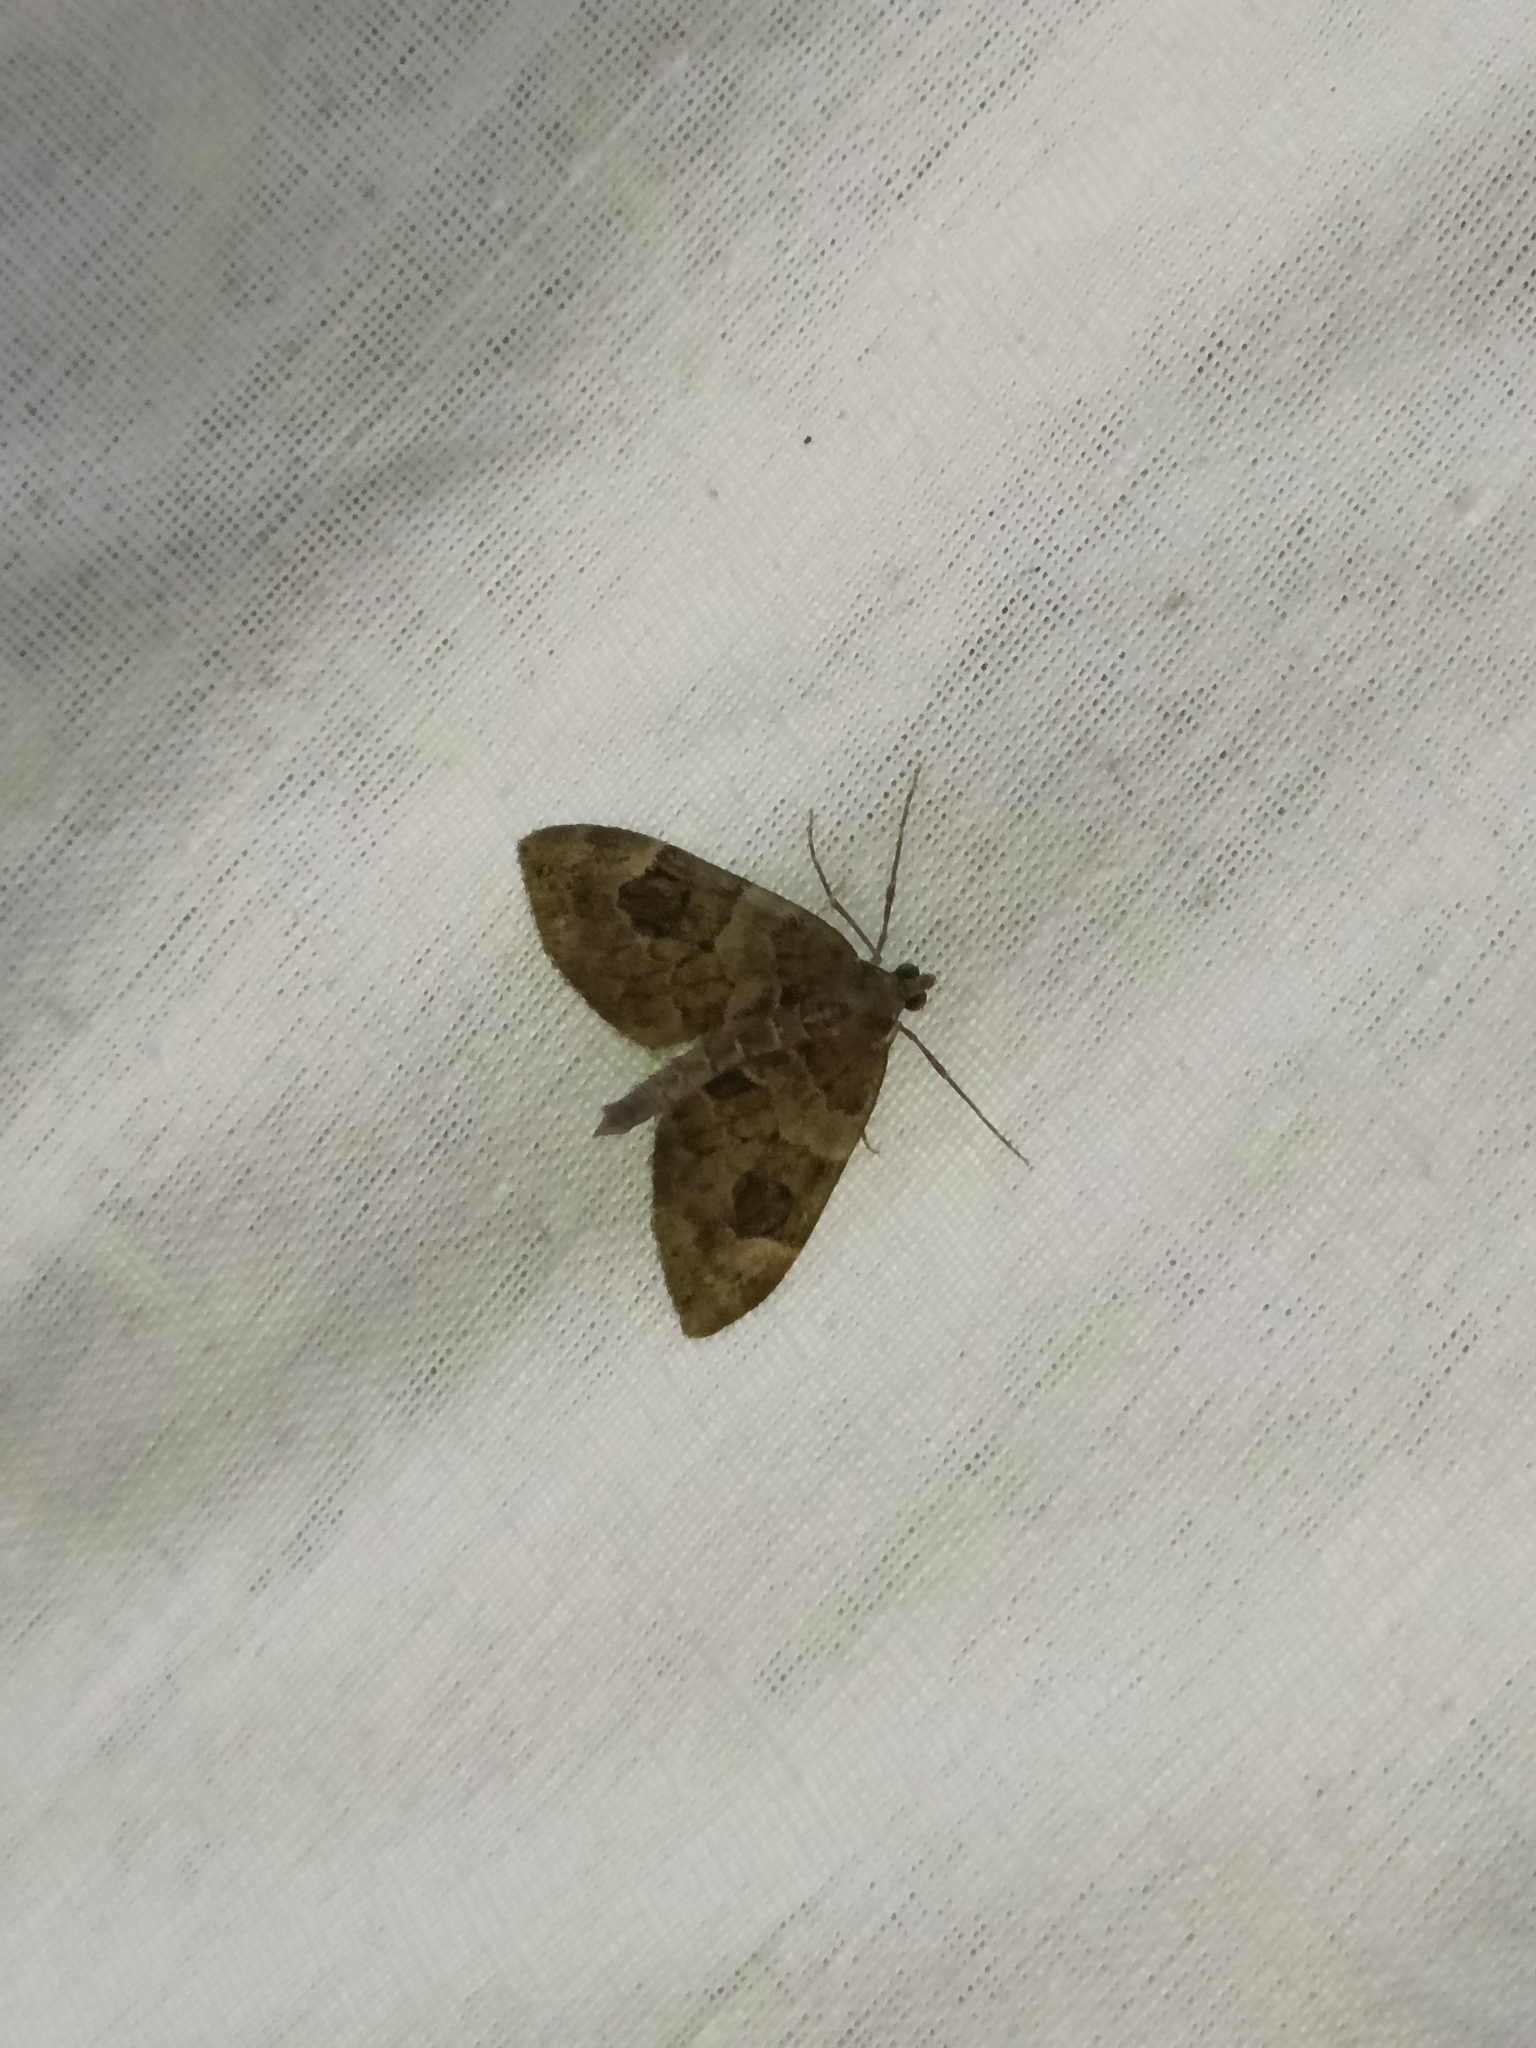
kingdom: Animalia
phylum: Arthropoda
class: Insecta
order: Lepidoptera
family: Geometridae
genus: Thera
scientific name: Thera obeliscata
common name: Grey pine carpet
